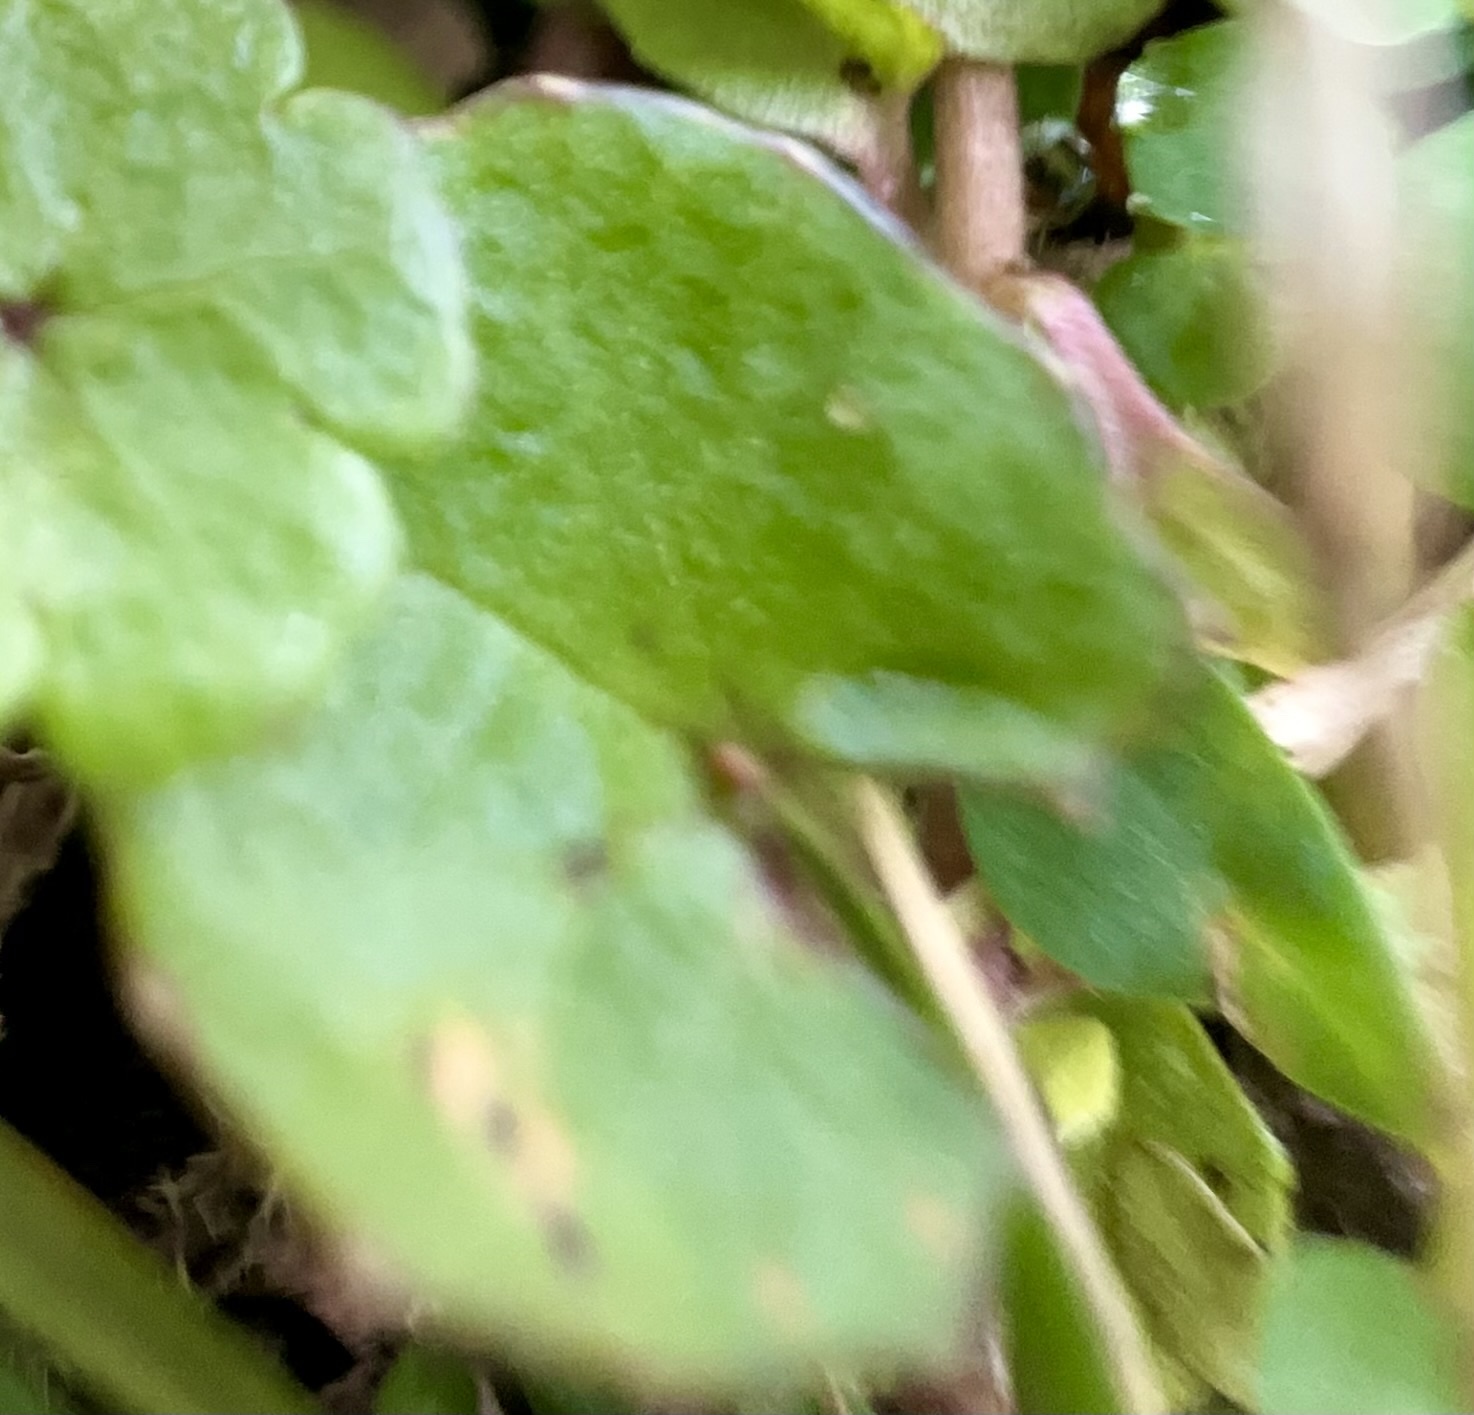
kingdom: Plantae
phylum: Tracheophyta
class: Magnoliopsida
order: Apiales
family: Apiaceae
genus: Centella
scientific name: Centella uniflora
